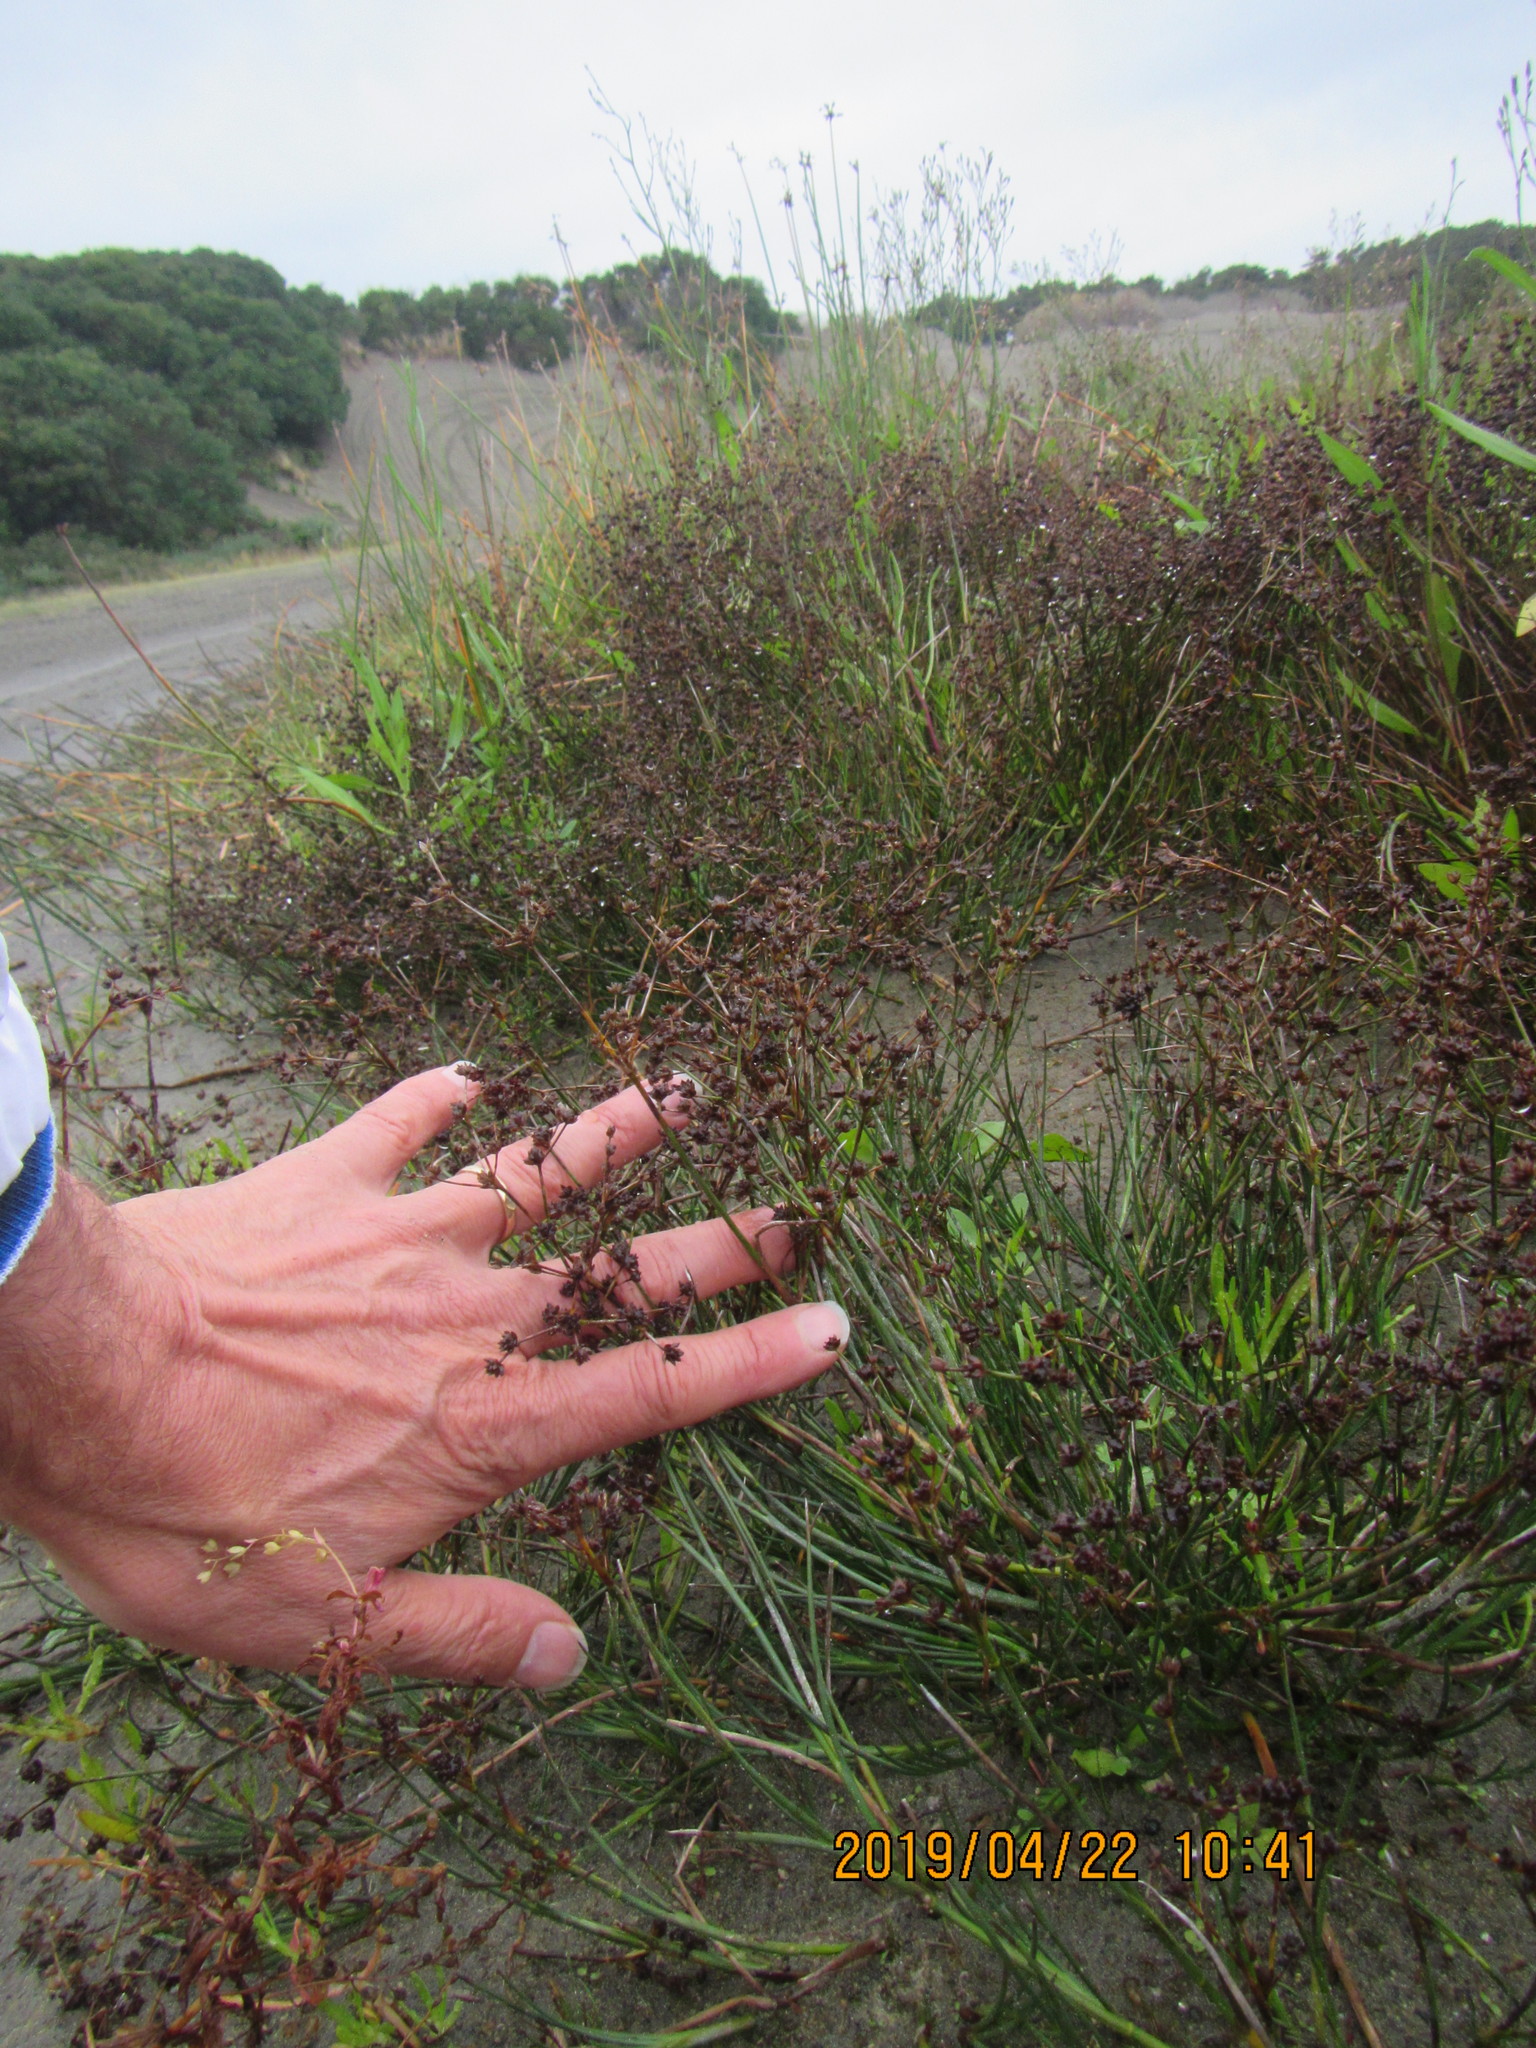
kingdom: Plantae
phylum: Tracheophyta
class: Liliopsida
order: Poales
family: Juncaceae
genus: Juncus
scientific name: Juncus articulatus
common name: Jointed rush
